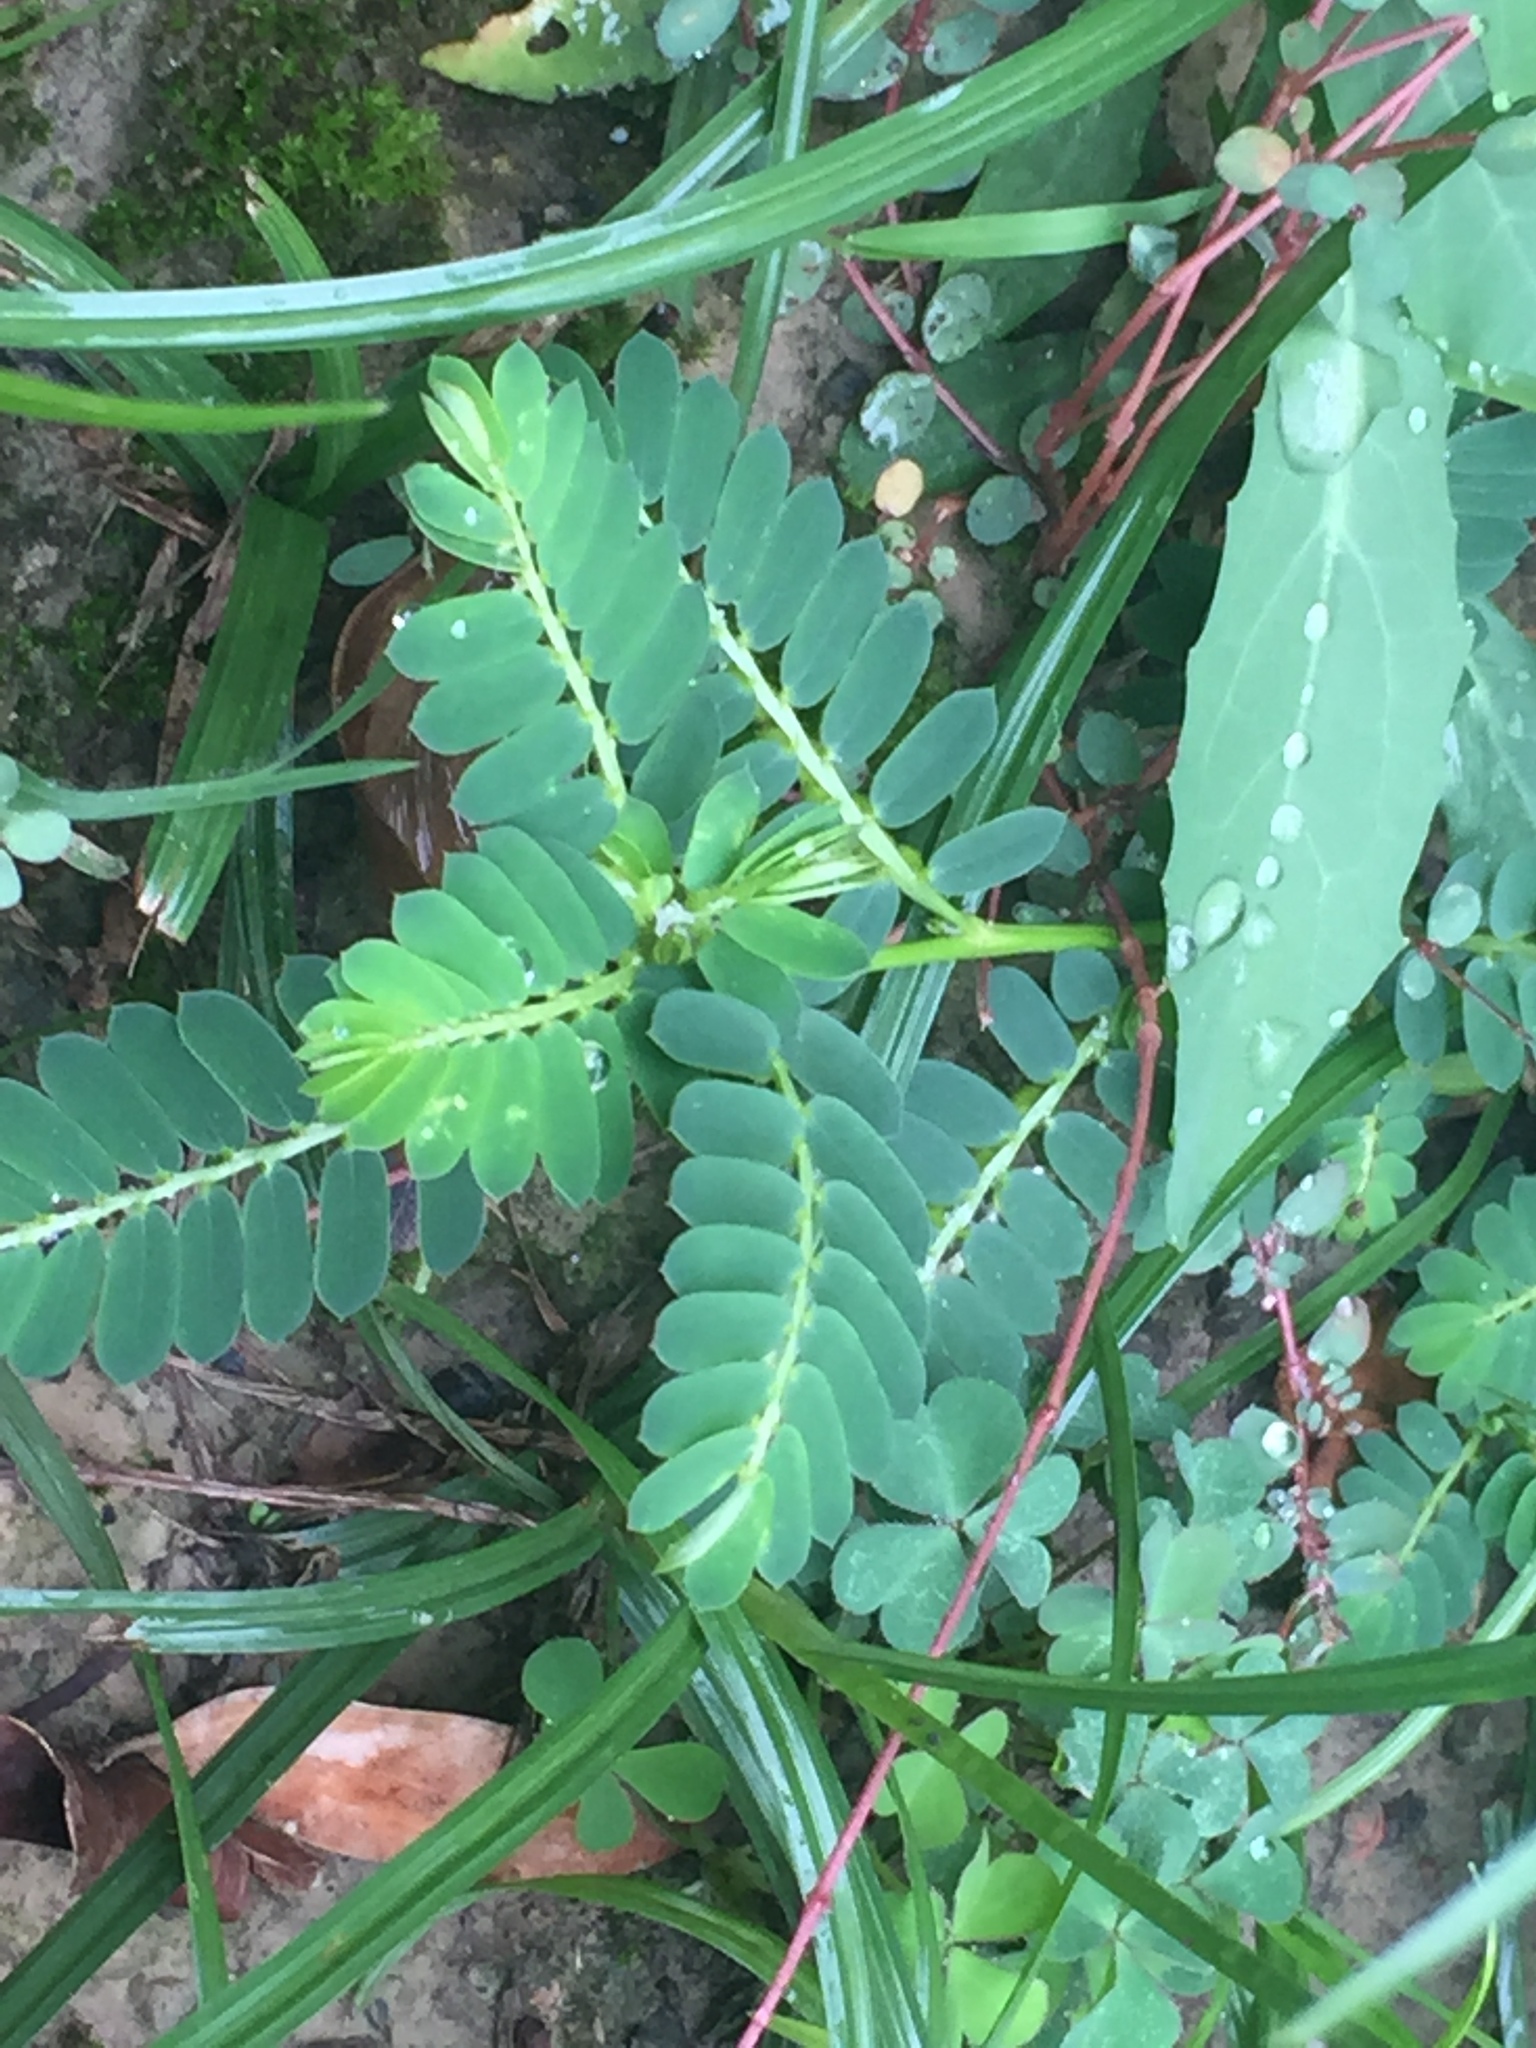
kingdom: Plantae
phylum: Tracheophyta
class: Magnoliopsida
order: Malpighiales
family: Phyllanthaceae
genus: Phyllanthus
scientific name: Phyllanthus urinaria
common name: Chamber bitter
